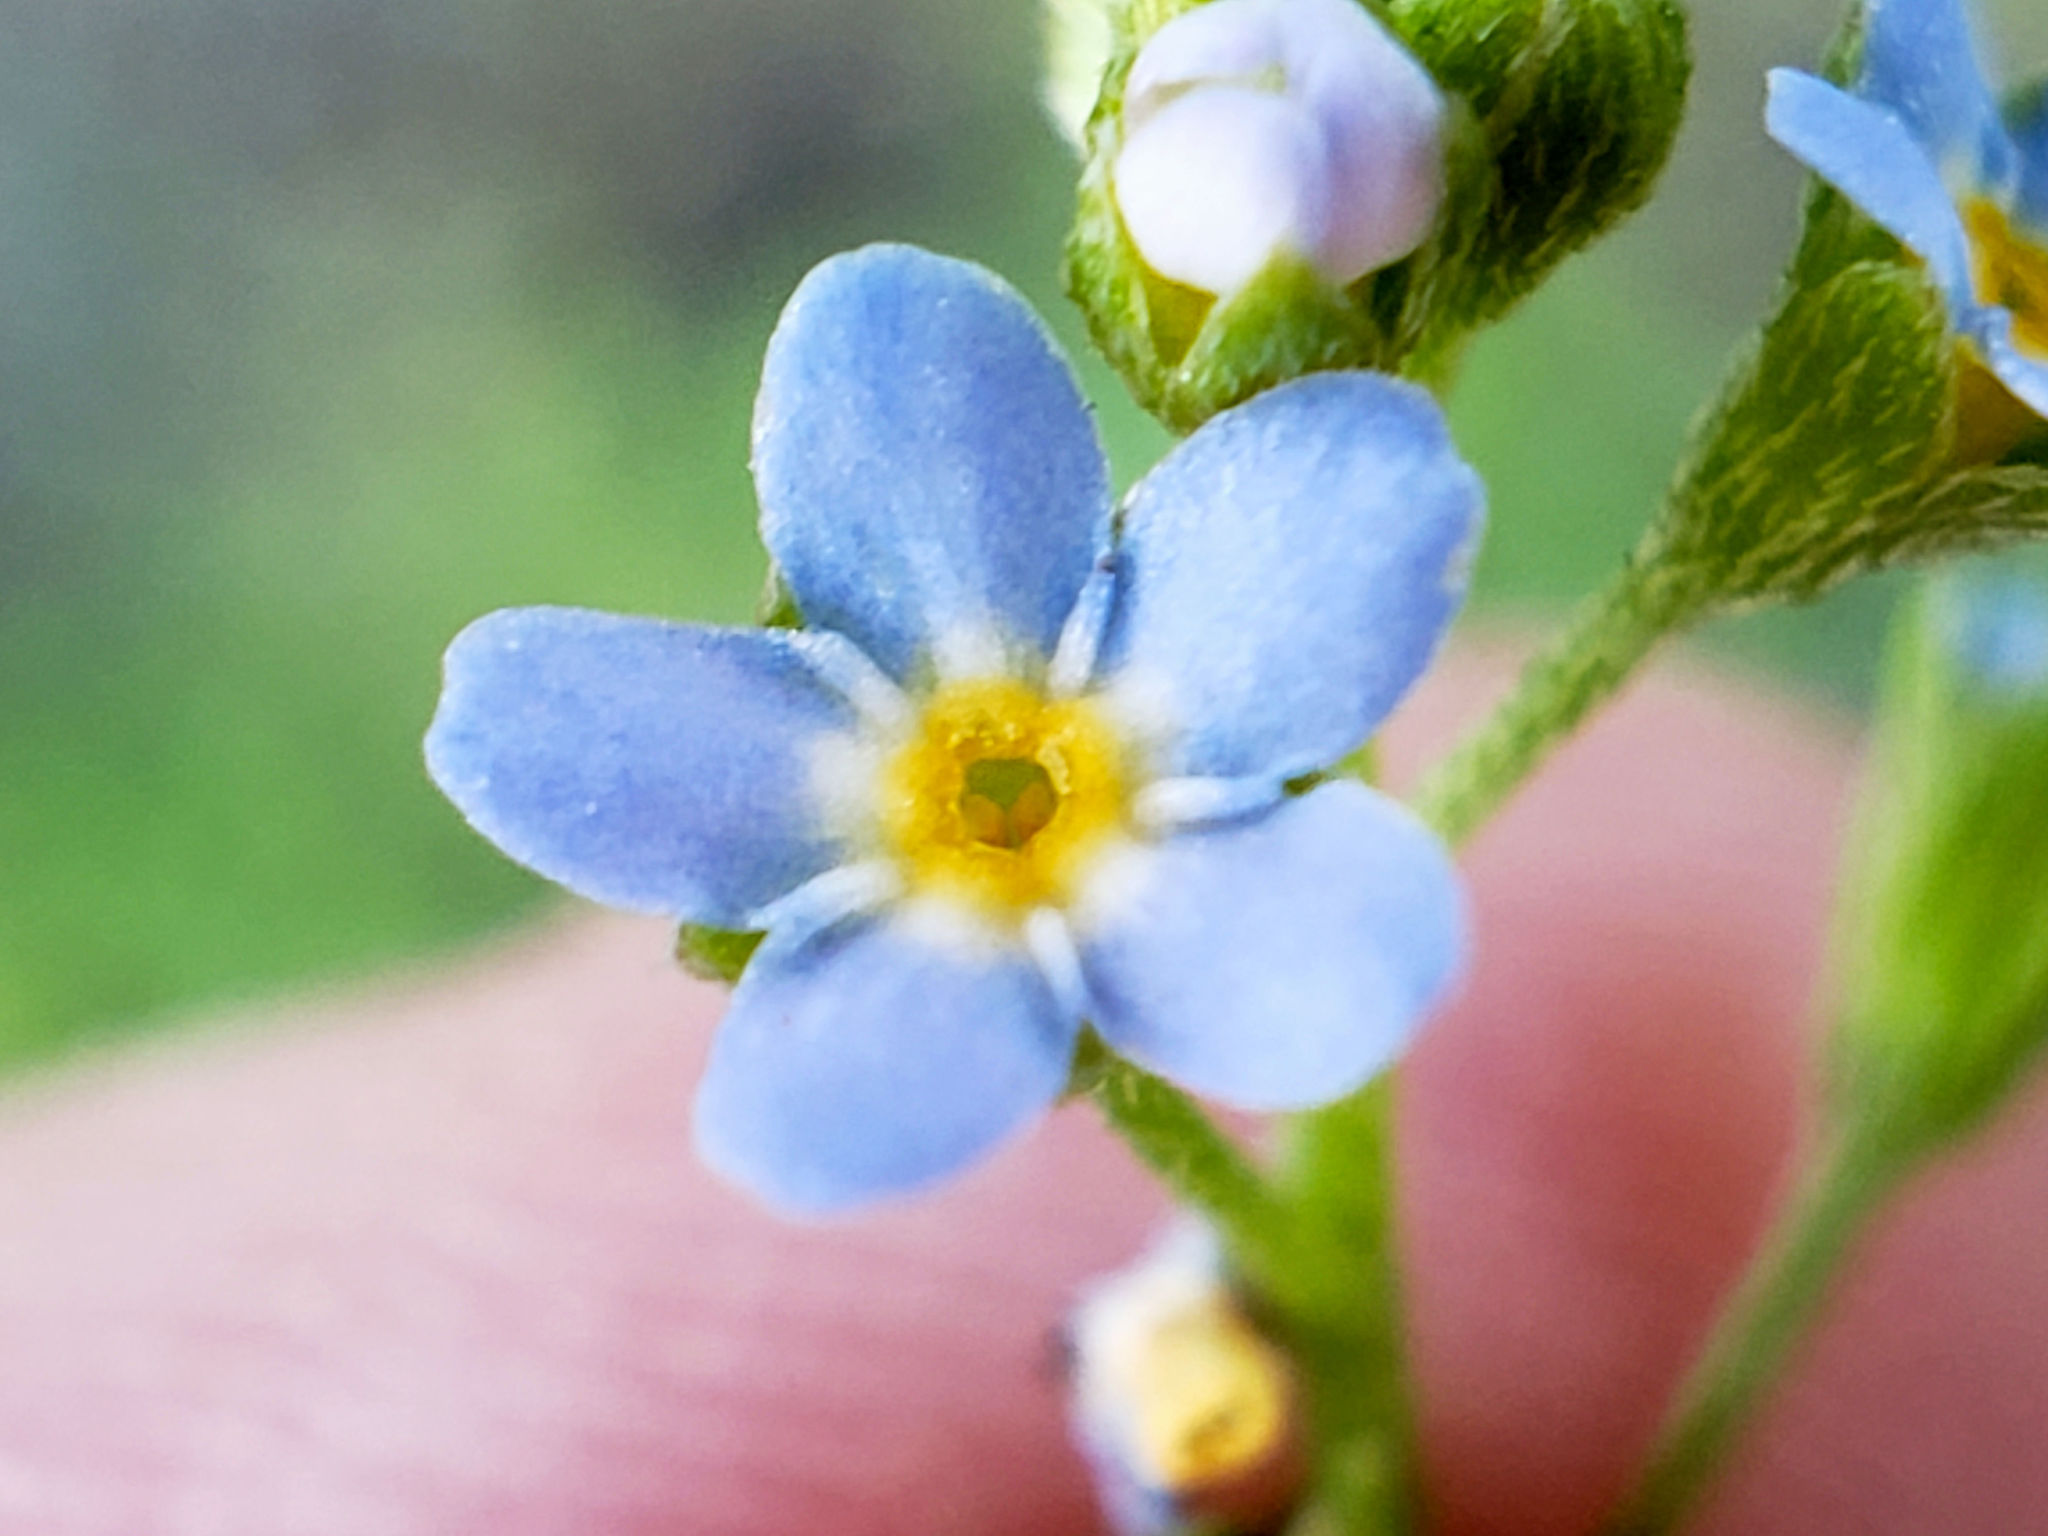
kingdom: Plantae
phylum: Tracheophyta
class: Magnoliopsida
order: Boraginales
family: Boraginaceae
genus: Myosotis
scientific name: Myosotis scorpioides
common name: Water forget-me-not
